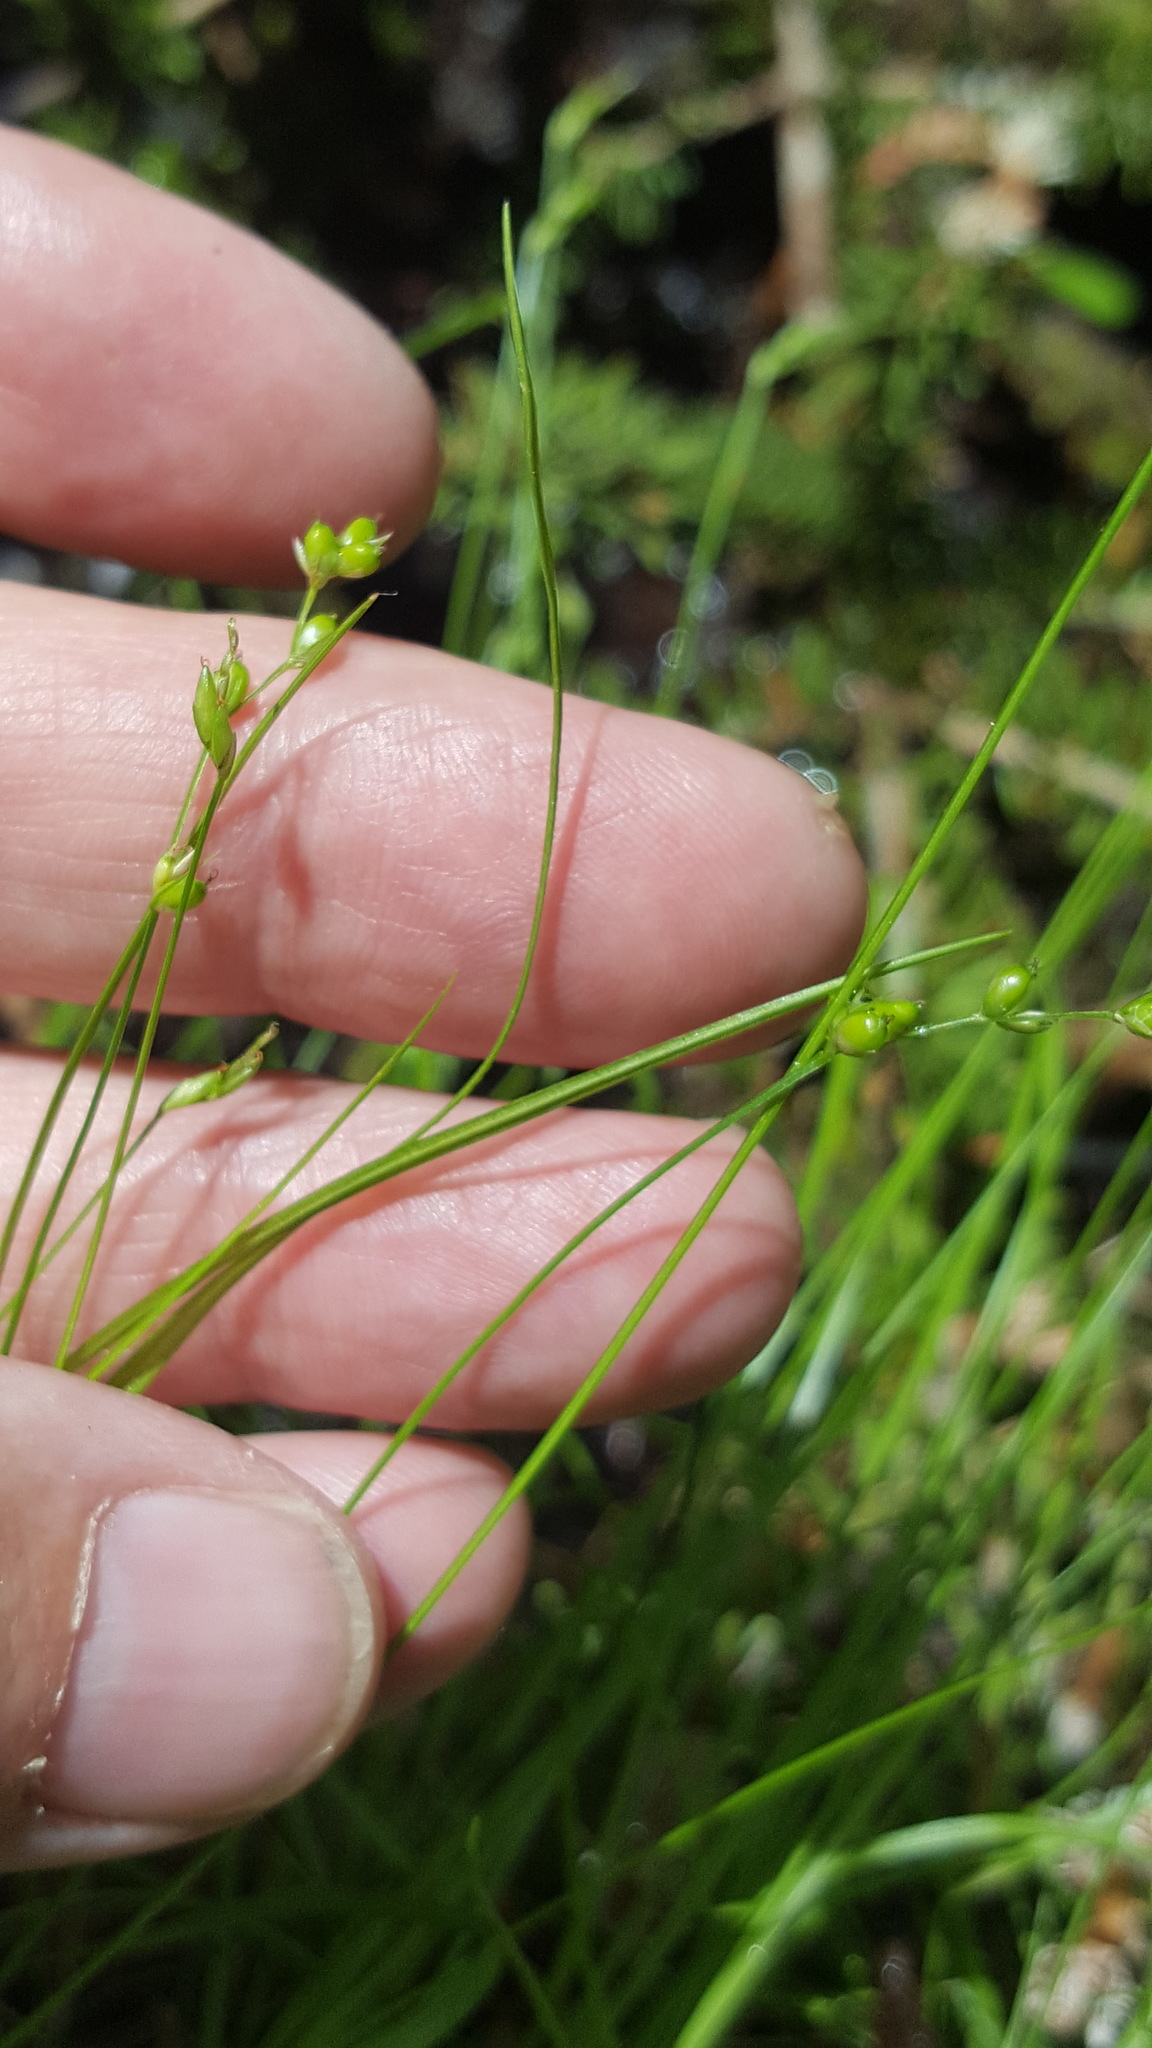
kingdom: Plantae
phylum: Tracheophyta
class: Liliopsida
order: Poales
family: Cyperaceae
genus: Carex
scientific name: Carex disperma
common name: Short-leaved sedge
